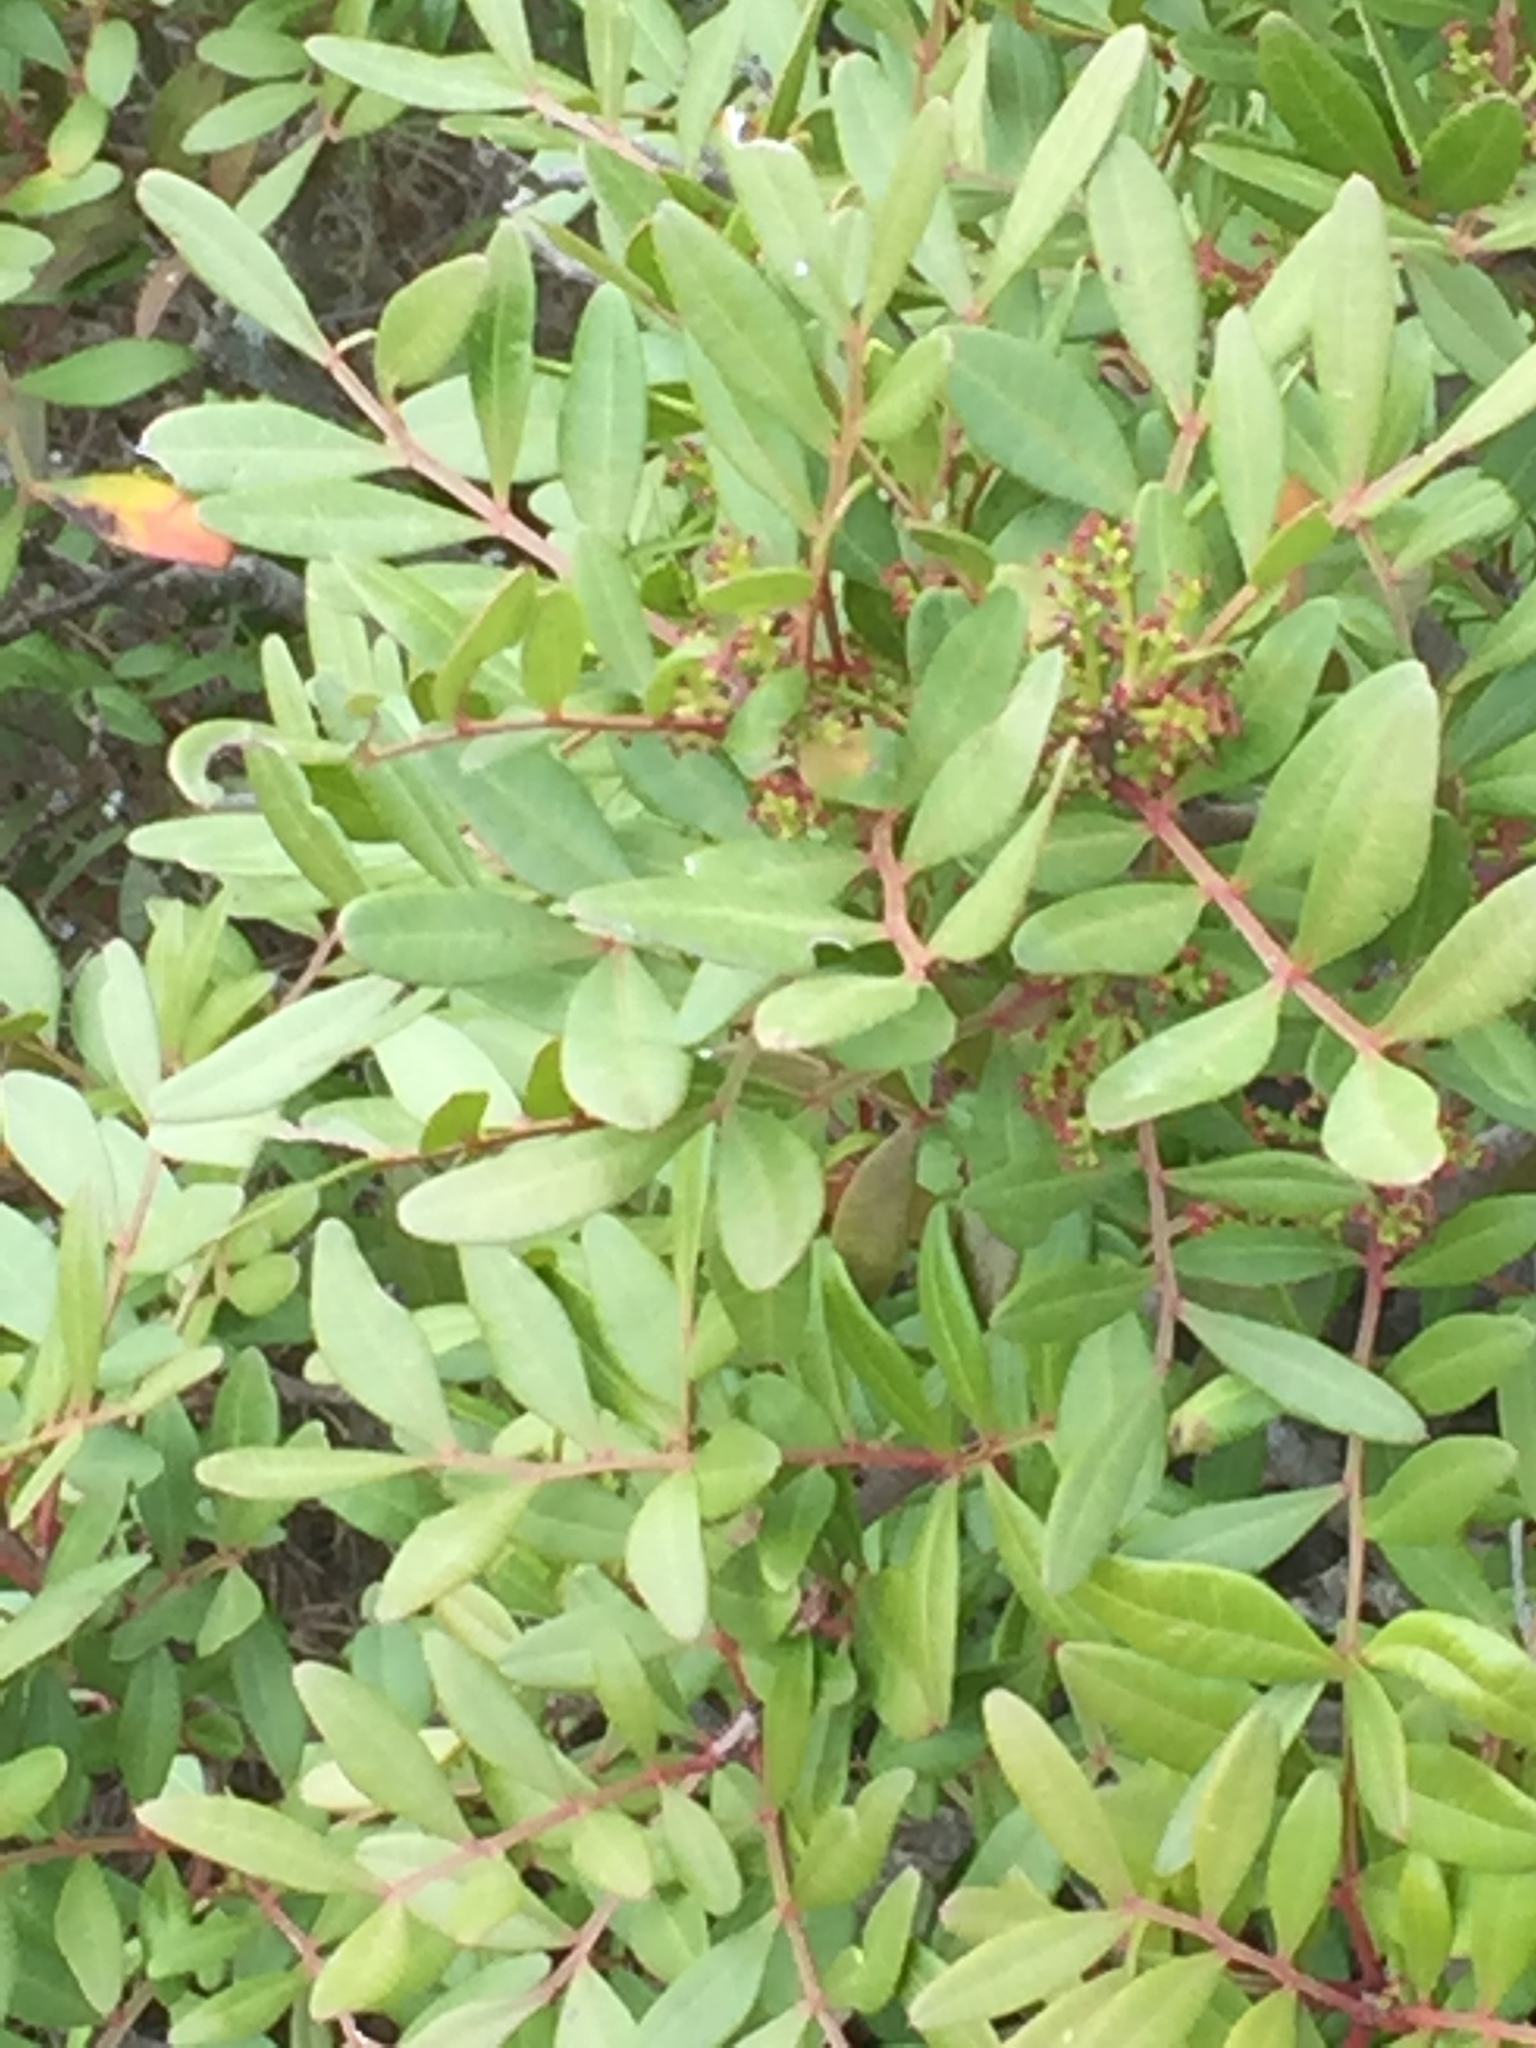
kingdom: Plantae
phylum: Tracheophyta
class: Magnoliopsida
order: Sapindales
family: Anacardiaceae
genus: Pistacia
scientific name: Pistacia lentiscus
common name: Lentisk
